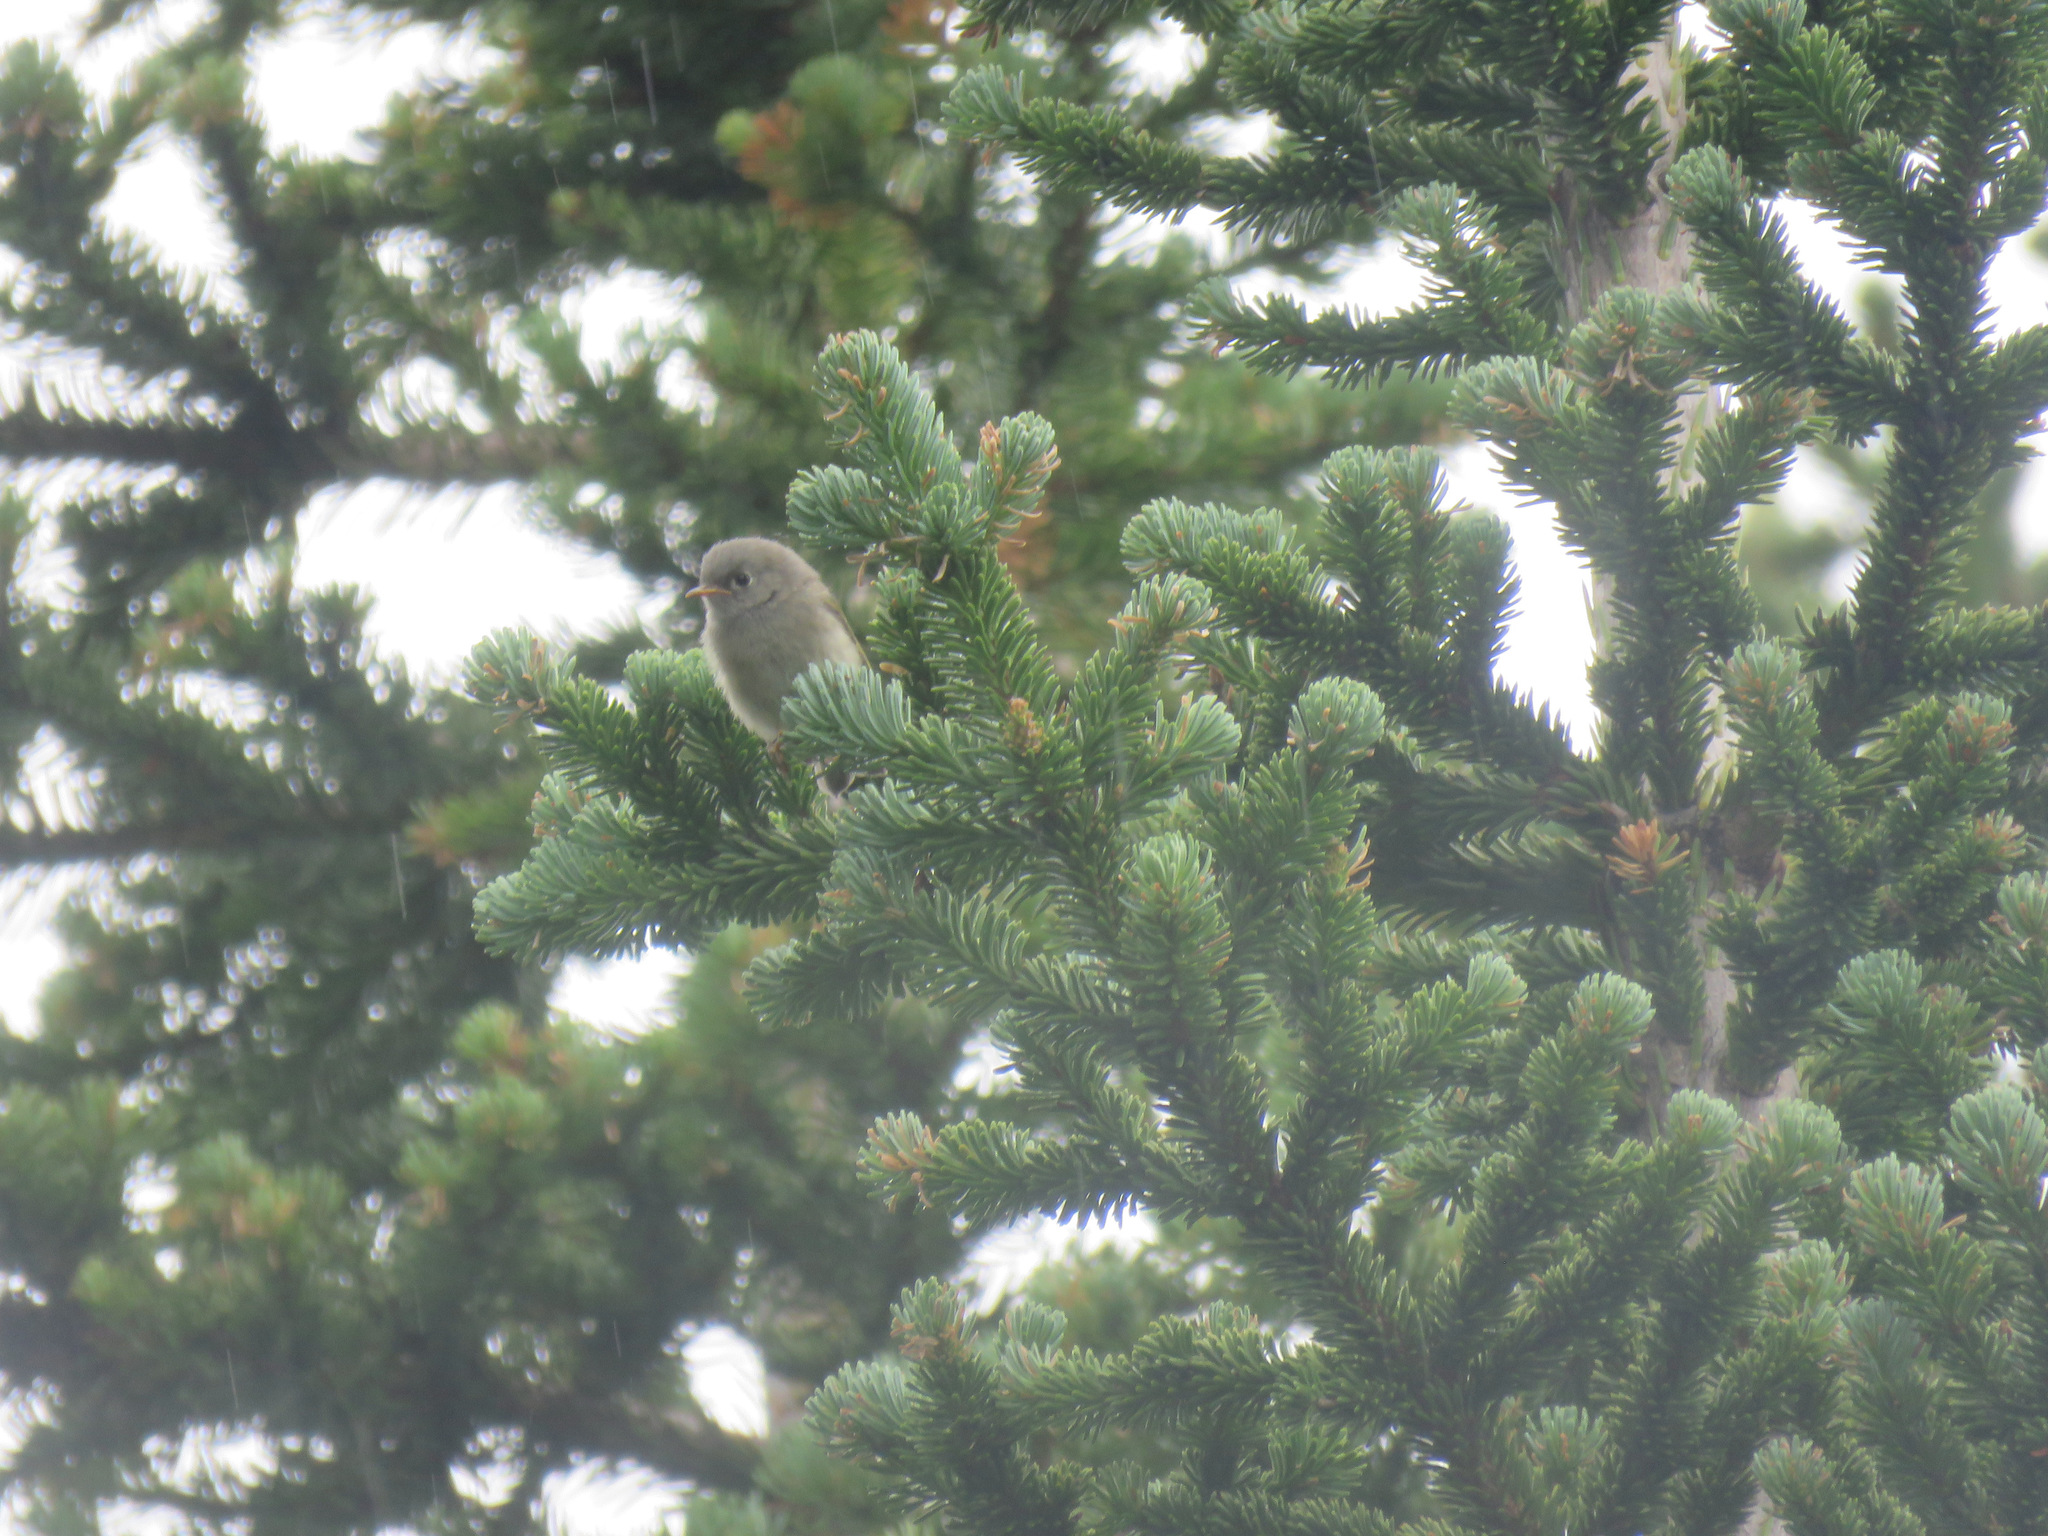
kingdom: Animalia
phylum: Chordata
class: Aves
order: Passeriformes
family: Regulidae
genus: Regulus
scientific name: Regulus calendula
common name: Ruby-crowned kinglet
